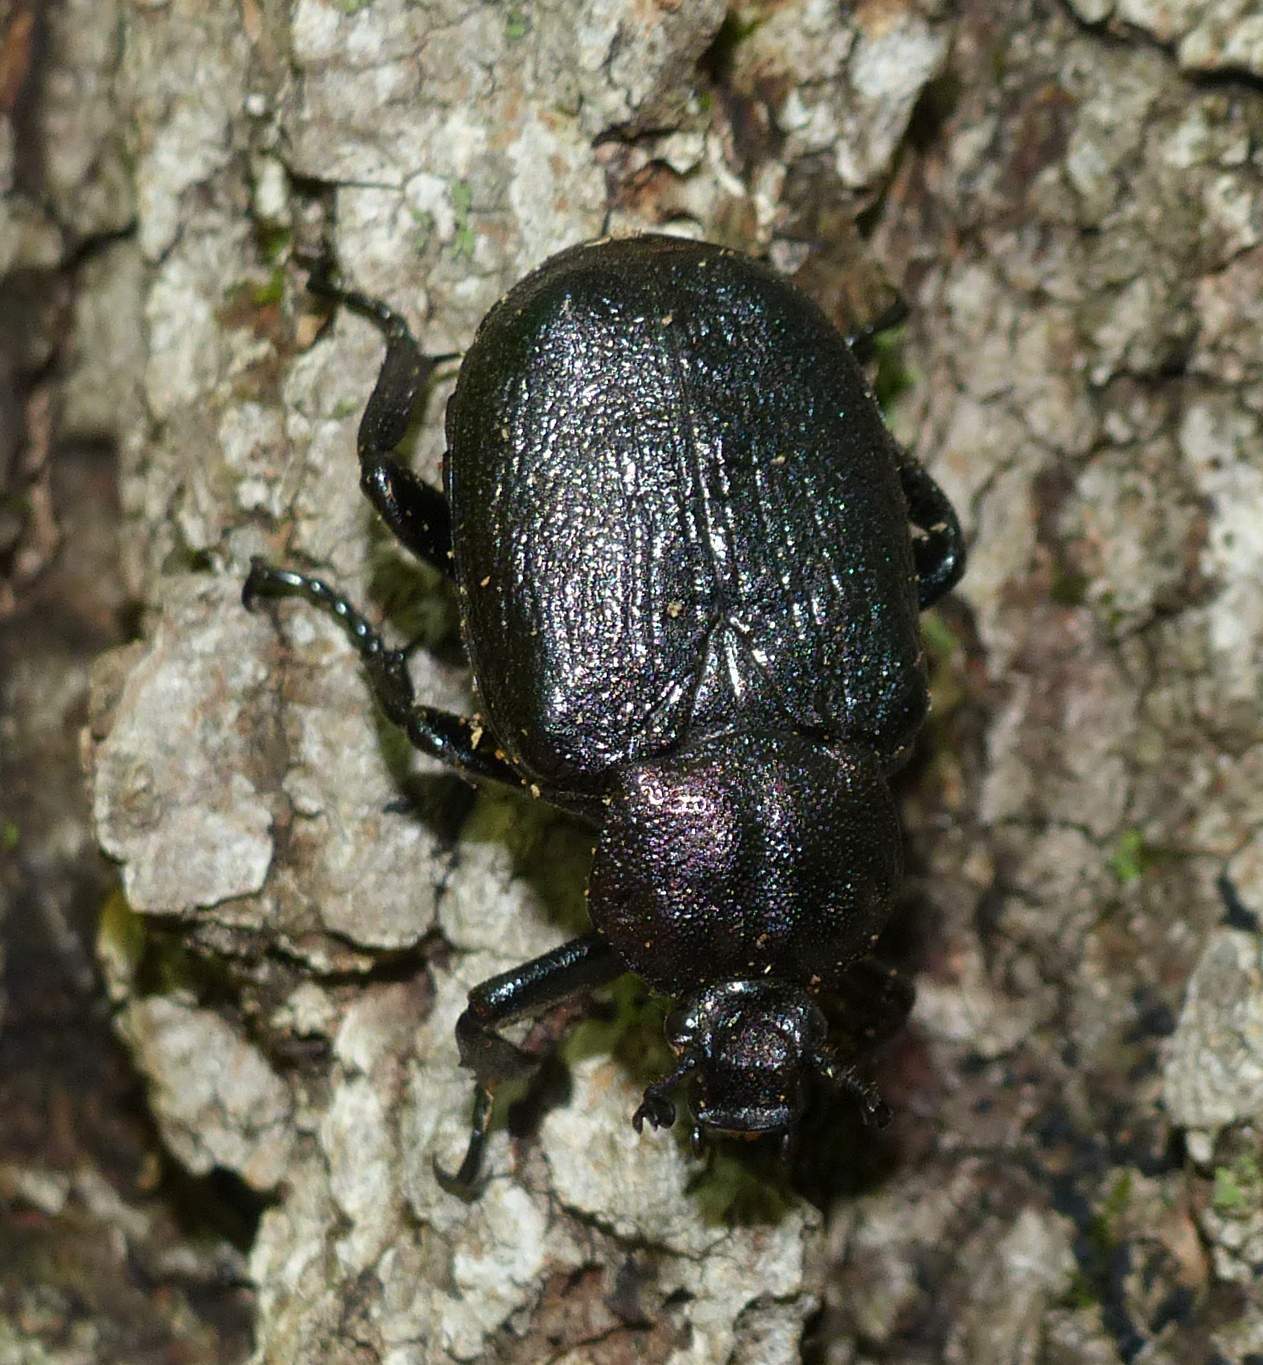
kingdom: Animalia
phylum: Arthropoda
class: Insecta
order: Coleoptera
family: Scarabaeidae
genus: Osmoderma
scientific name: Osmoderma scabra
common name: Rough hermit beetle
